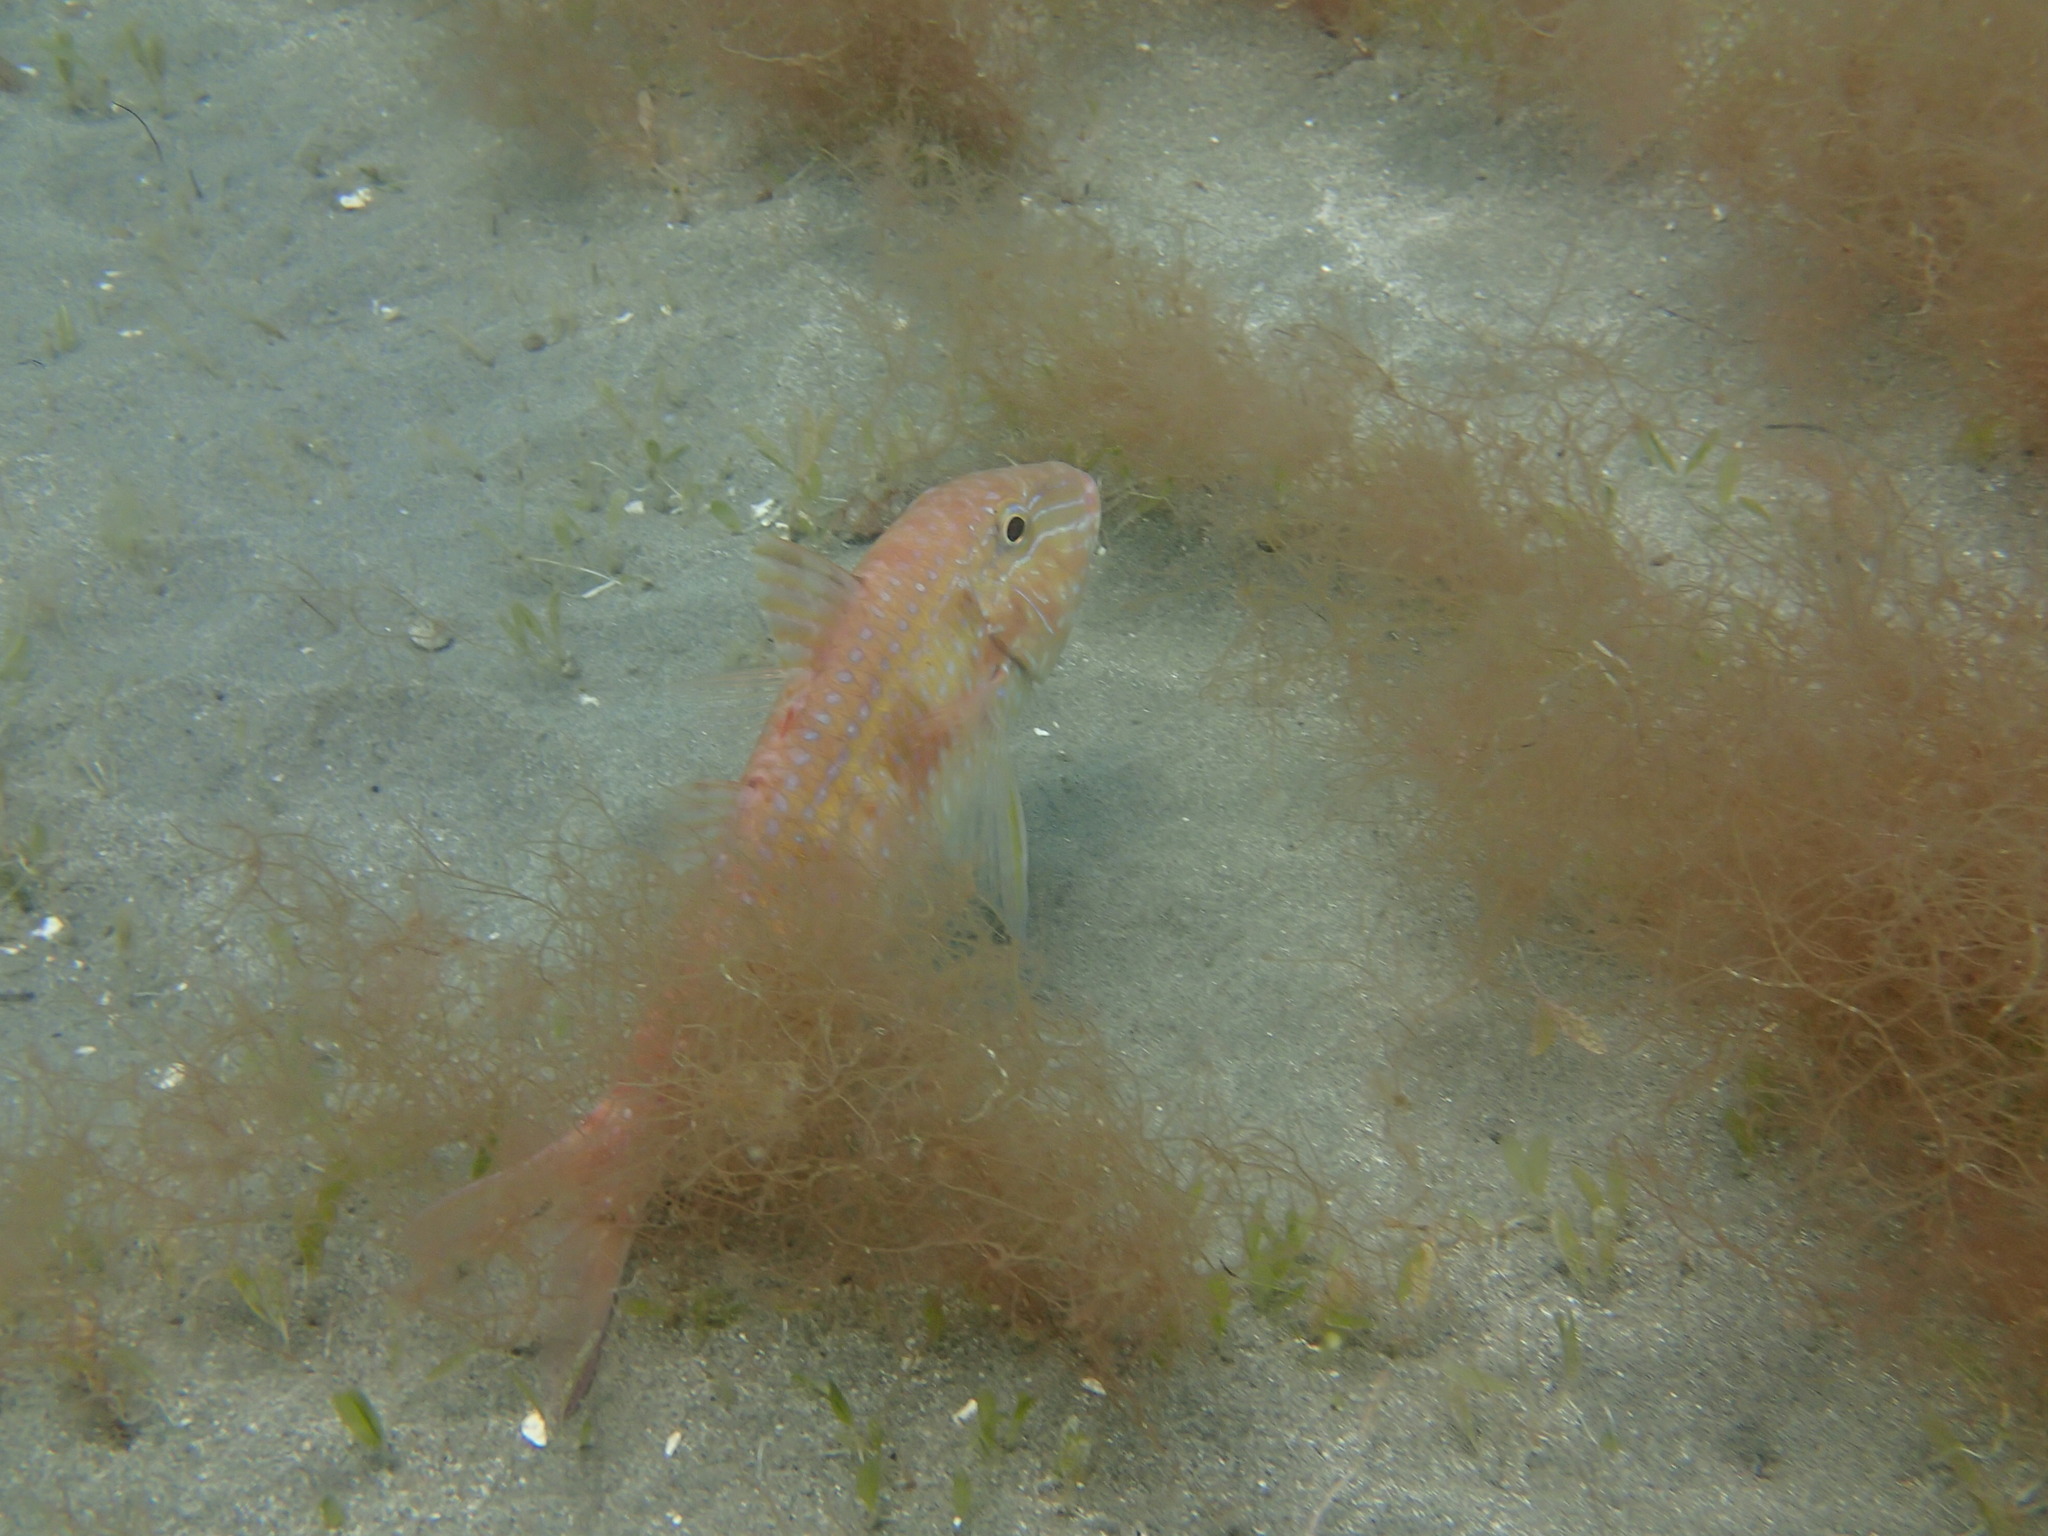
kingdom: Animalia
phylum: Chordata
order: Perciformes
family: Mullidae
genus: Pseudupeneus
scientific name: Pseudupeneus maculatus
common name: Spotted goatfish
